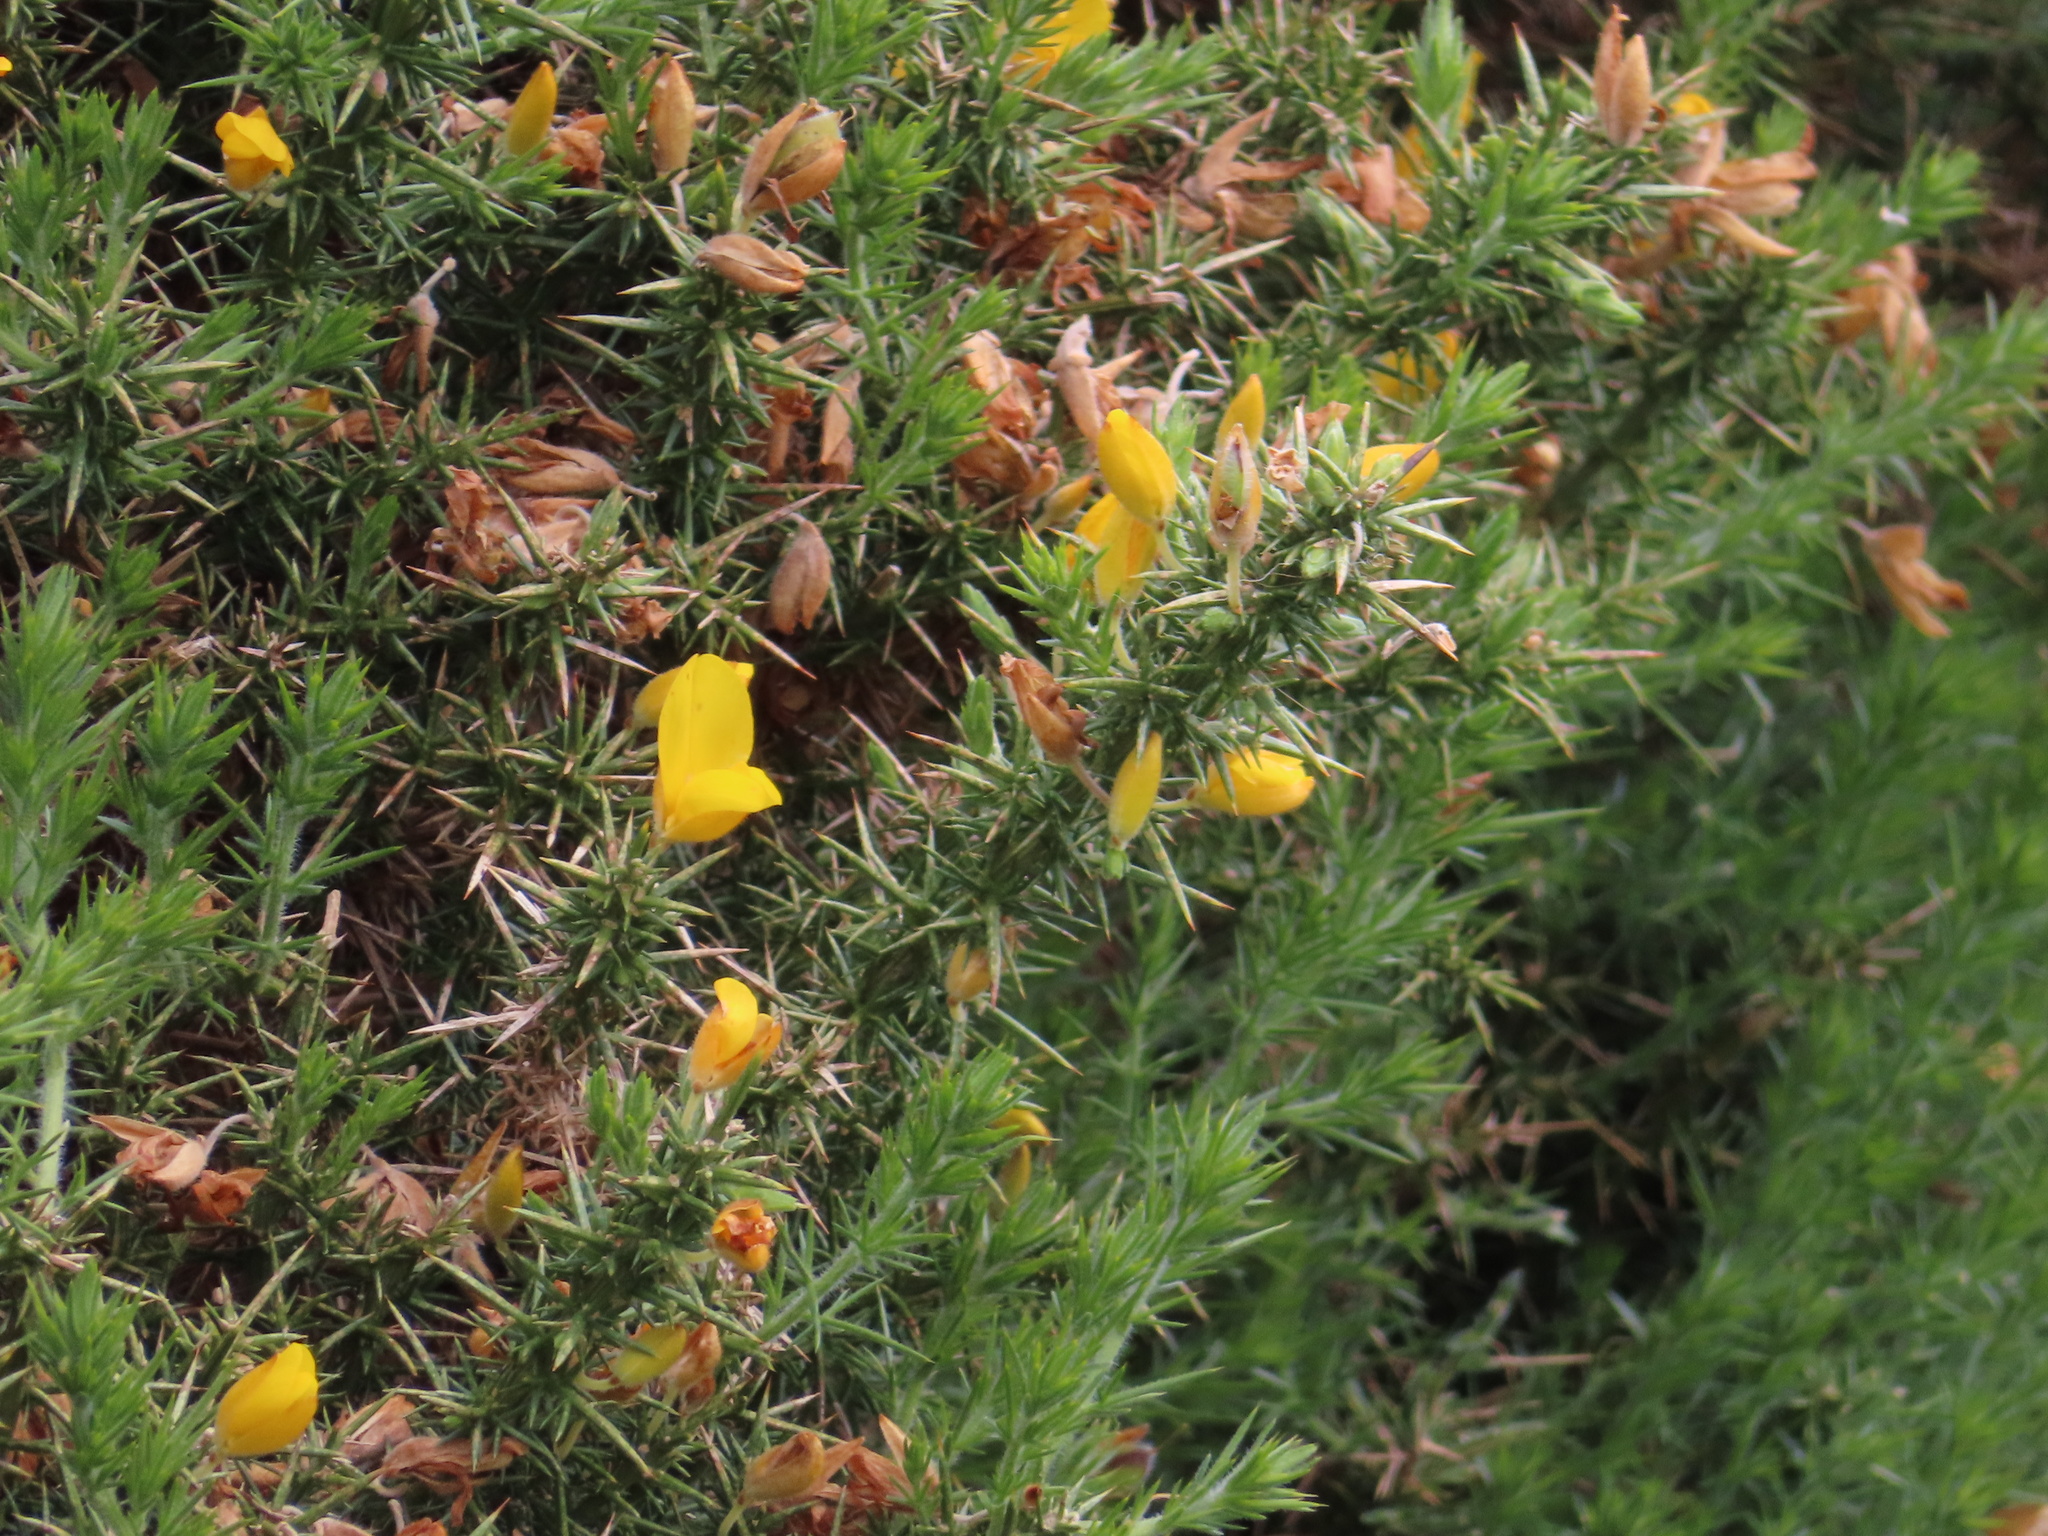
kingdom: Plantae
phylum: Tracheophyta
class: Magnoliopsida
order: Fabales
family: Fabaceae
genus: Ulex
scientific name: Ulex europaeus
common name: Common gorse
